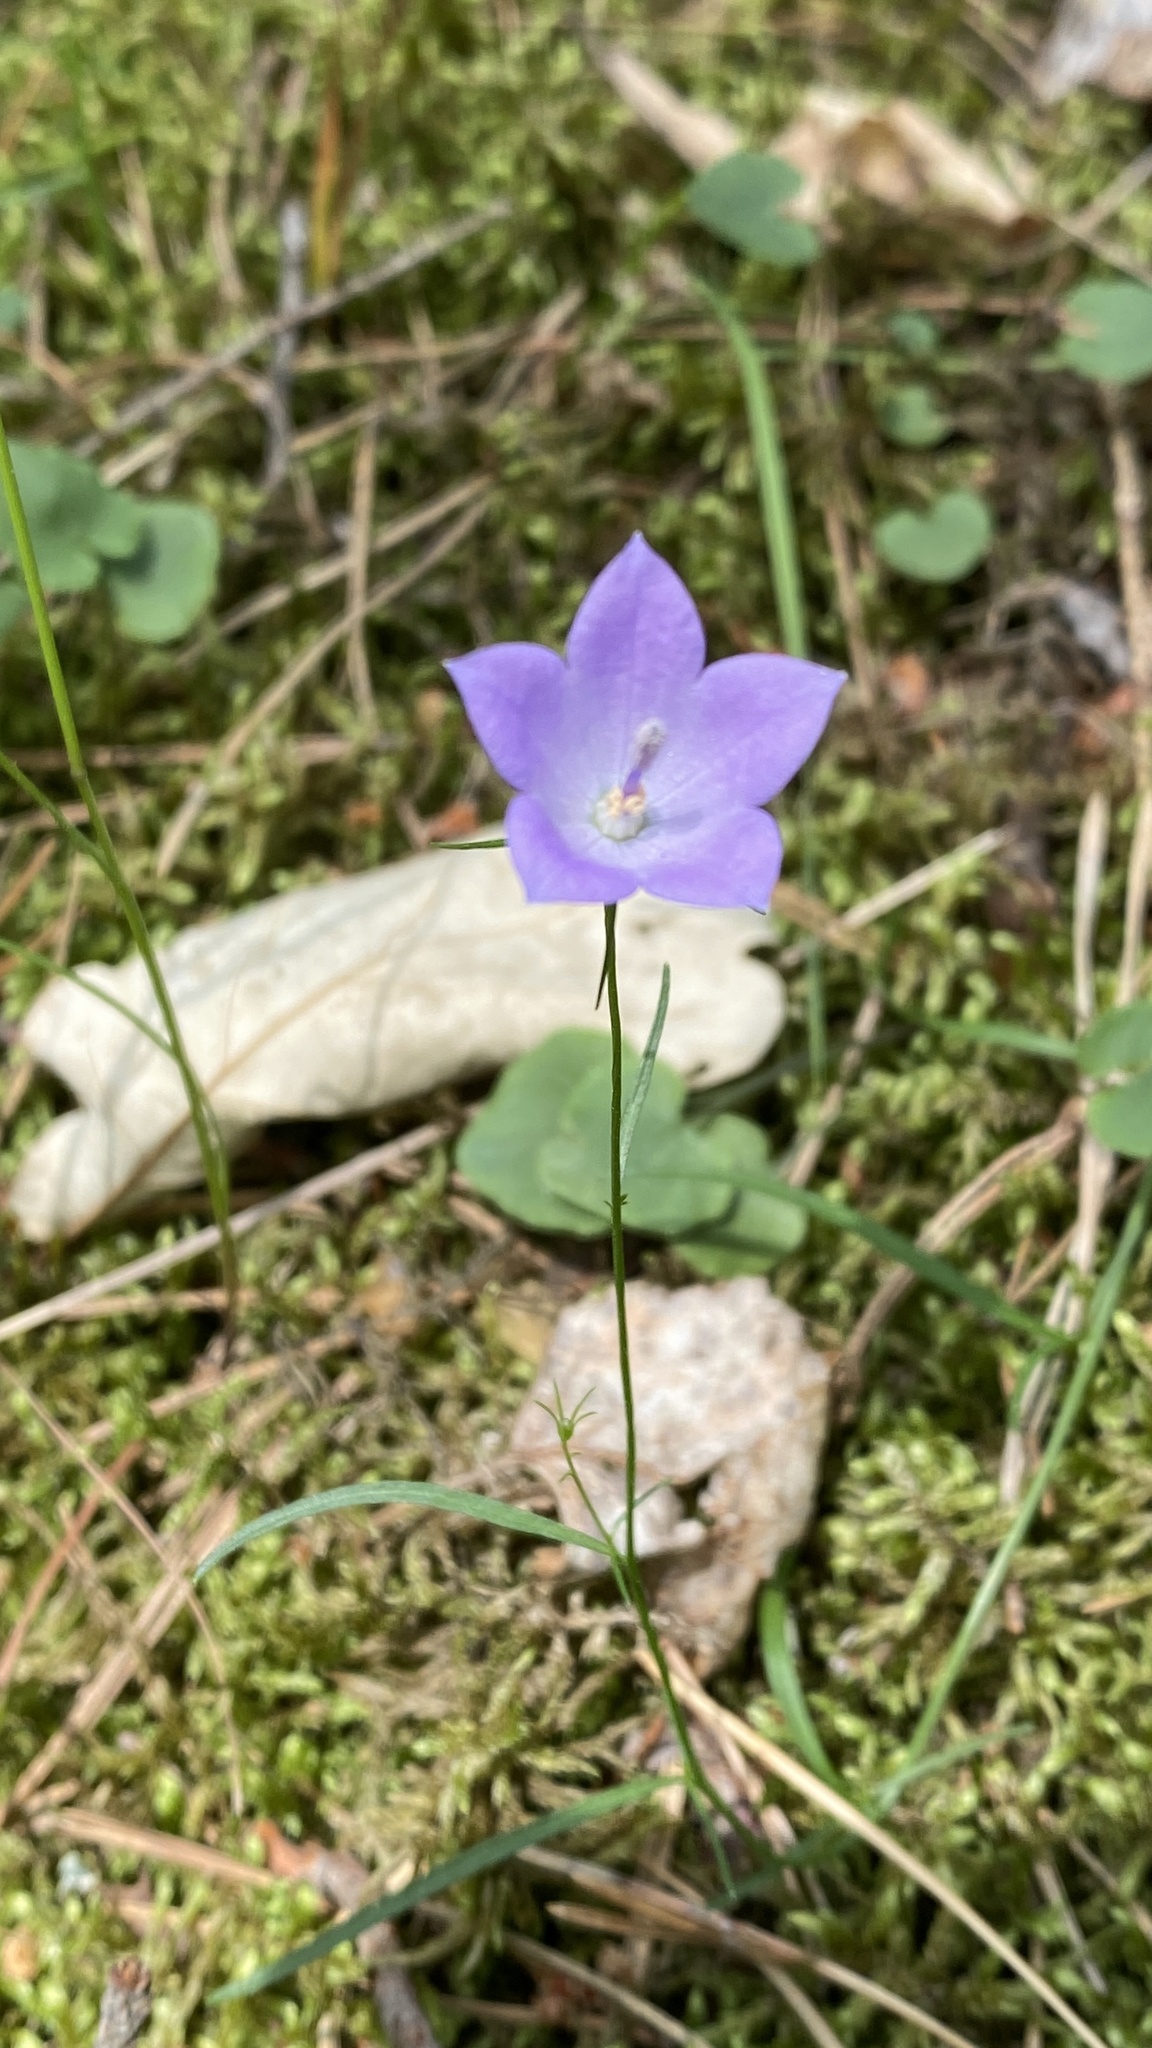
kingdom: Plantae
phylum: Tracheophyta
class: Magnoliopsida
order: Asterales
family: Campanulaceae
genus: Campanula
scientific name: Campanula rotundifolia
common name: Harebell
